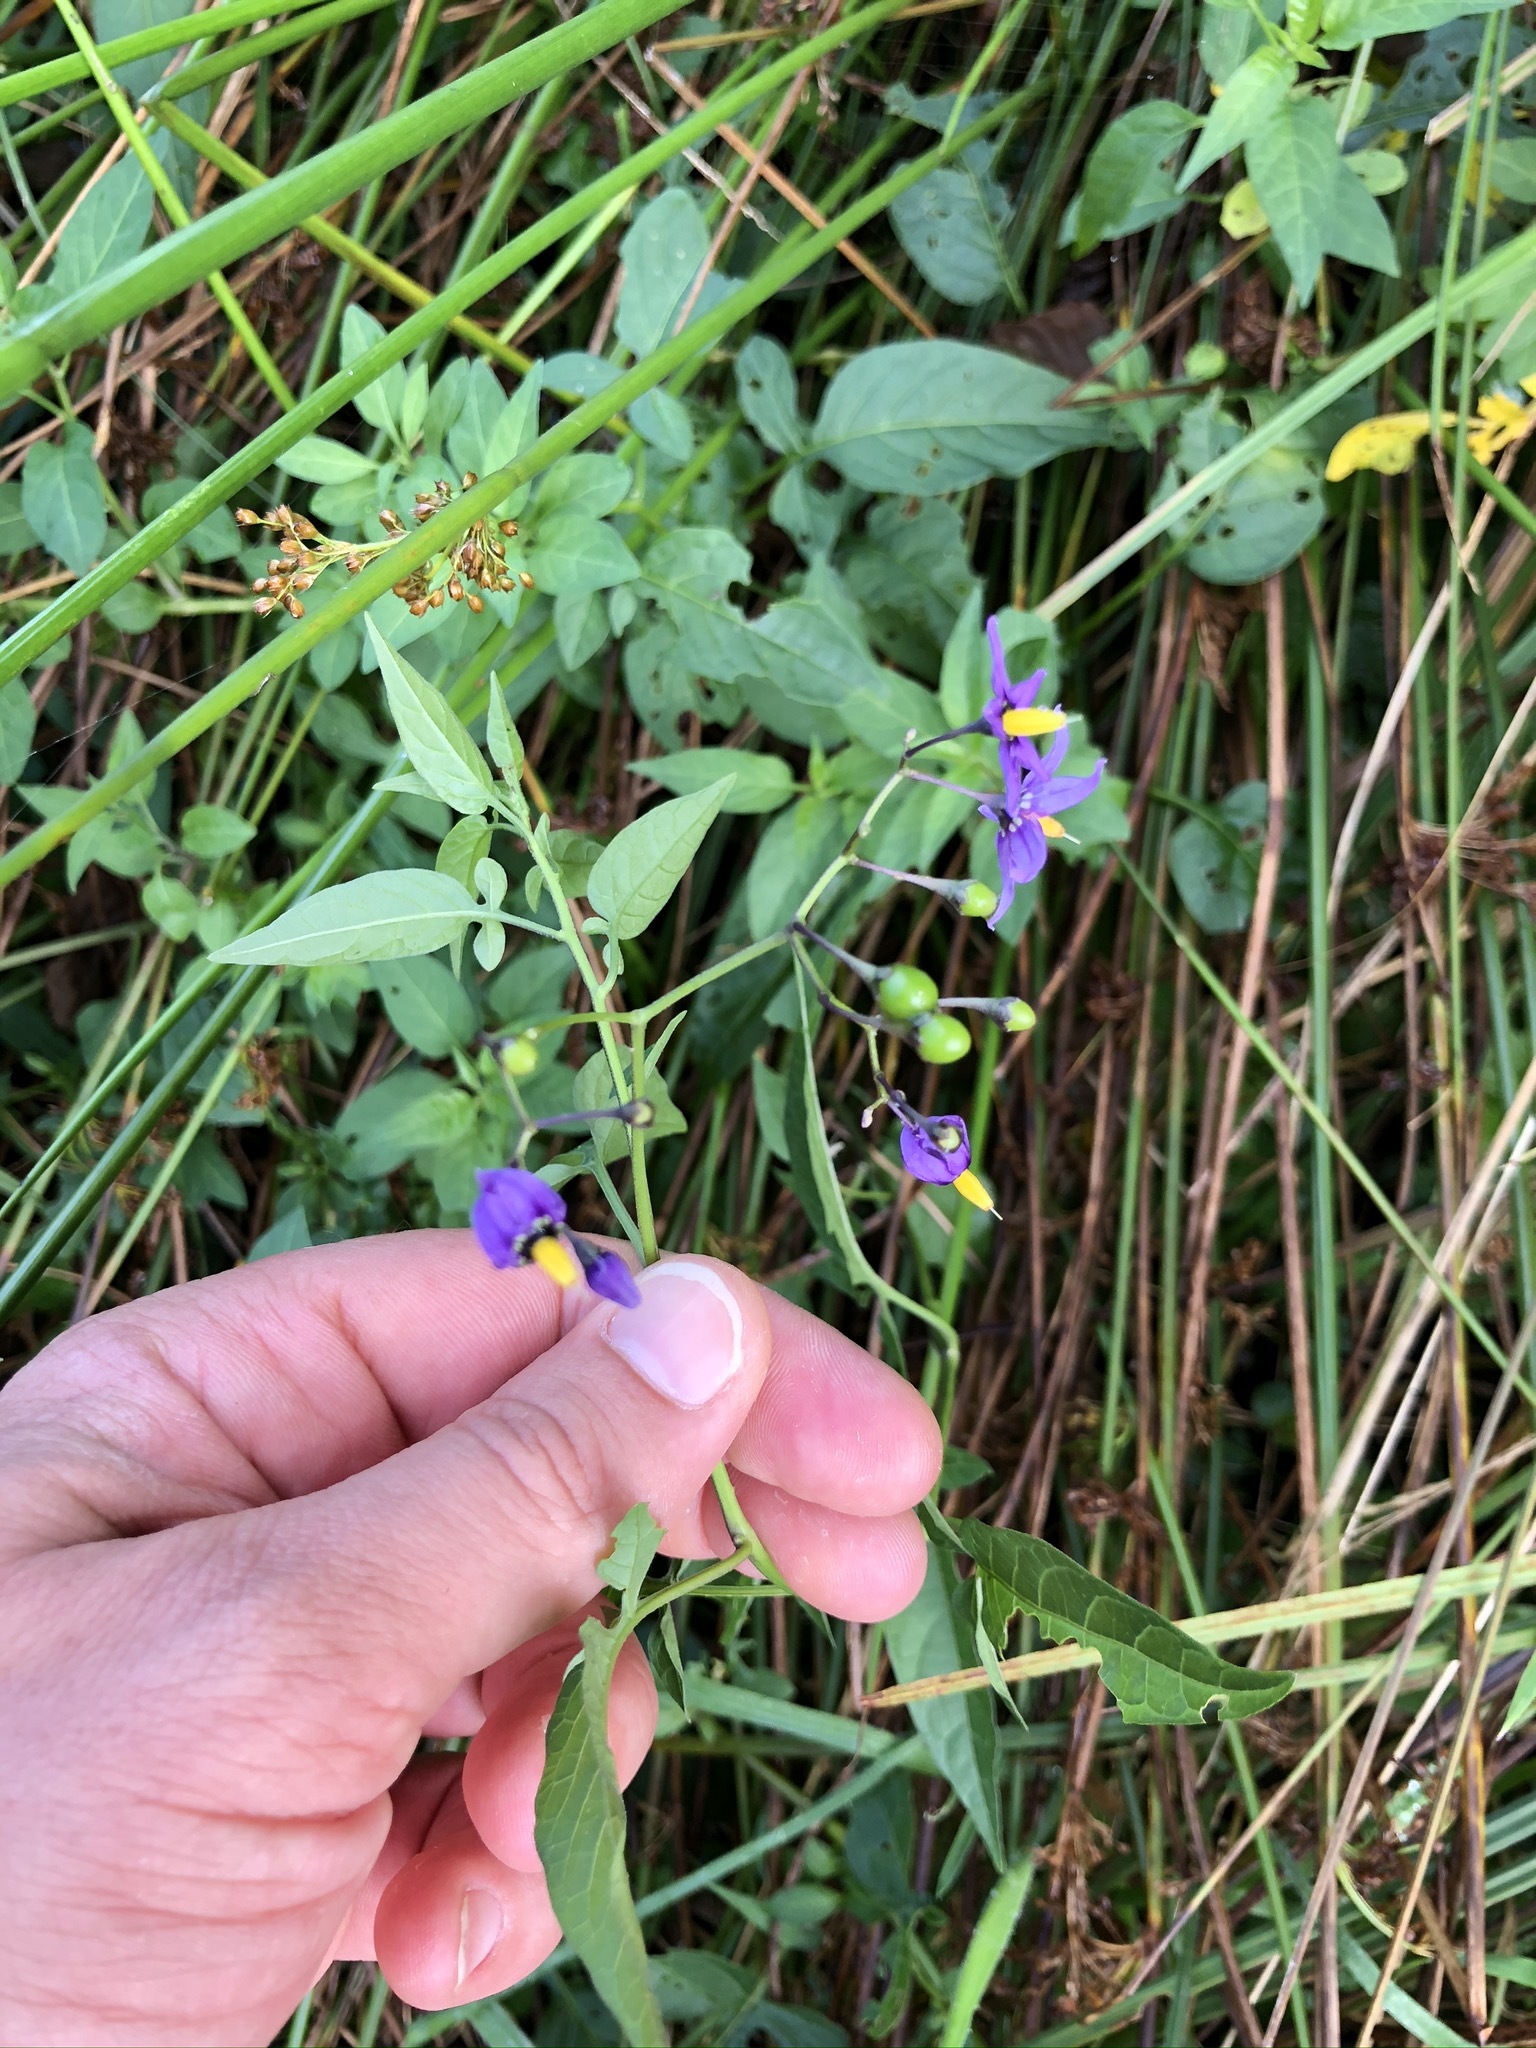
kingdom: Plantae
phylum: Tracheophyta
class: Magnoliopsida
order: Solanales
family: Solanaceae
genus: Solanum
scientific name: Solanum dulcamara
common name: Climbing nightshade
